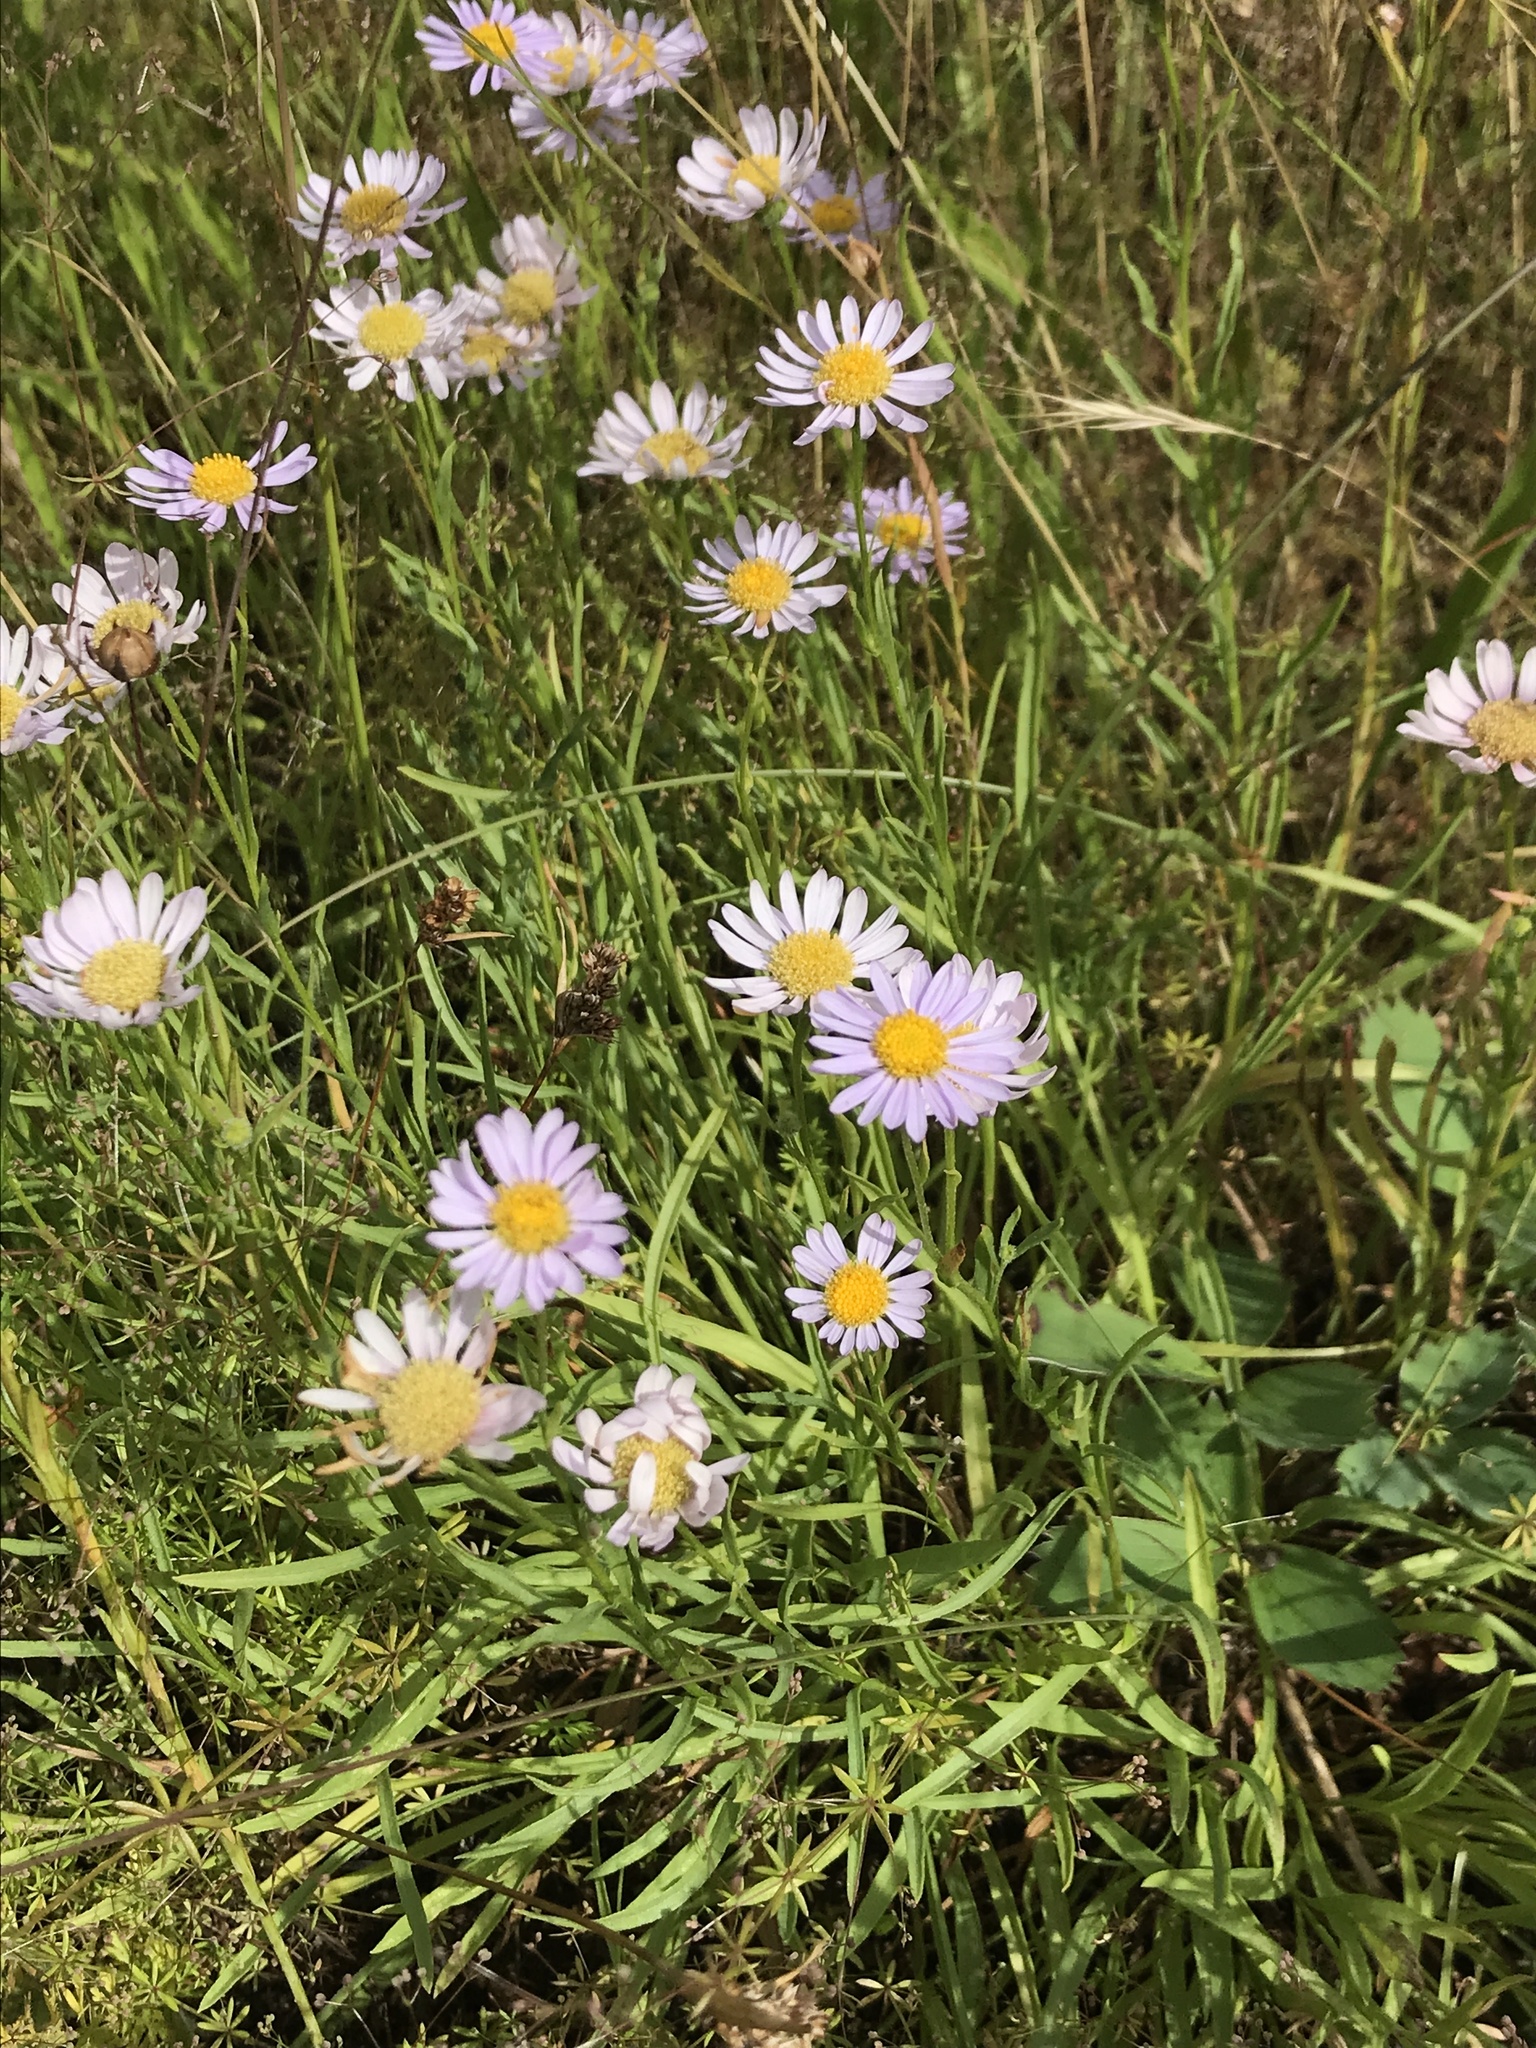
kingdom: Plantae
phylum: Tracheophyta
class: Magnoliopsida
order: Asterales
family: Asteraceae
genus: Erigeron
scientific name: Erigeron decumbens
